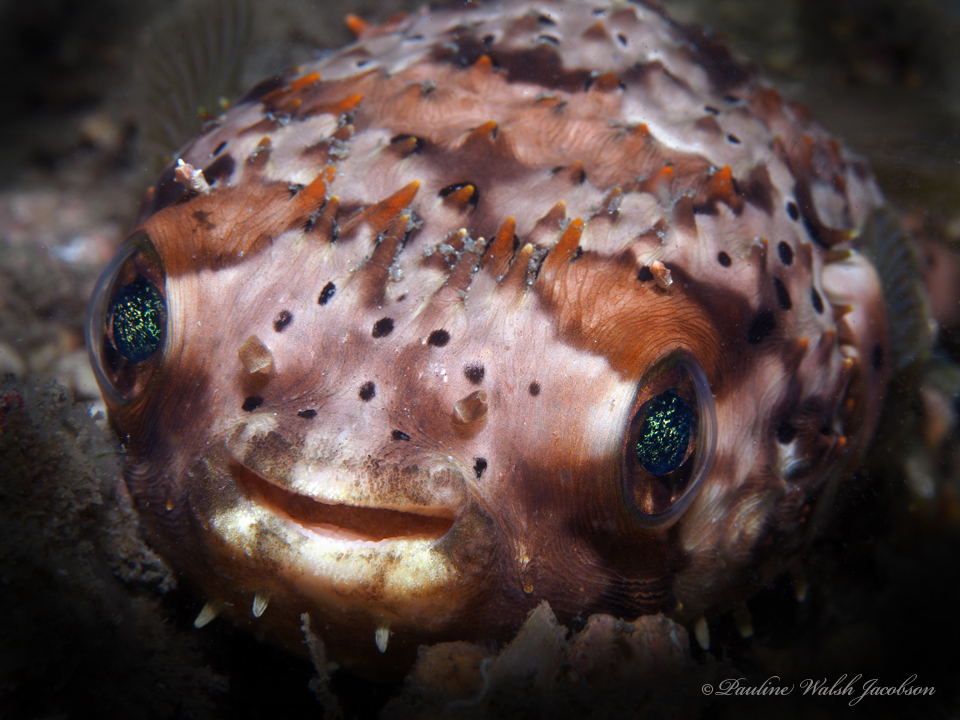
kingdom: Animalia
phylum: Chordata
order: Tetraodontiformes
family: Diodontidae
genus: Diodon
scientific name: Diodon holocanthus
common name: Balloonfish
